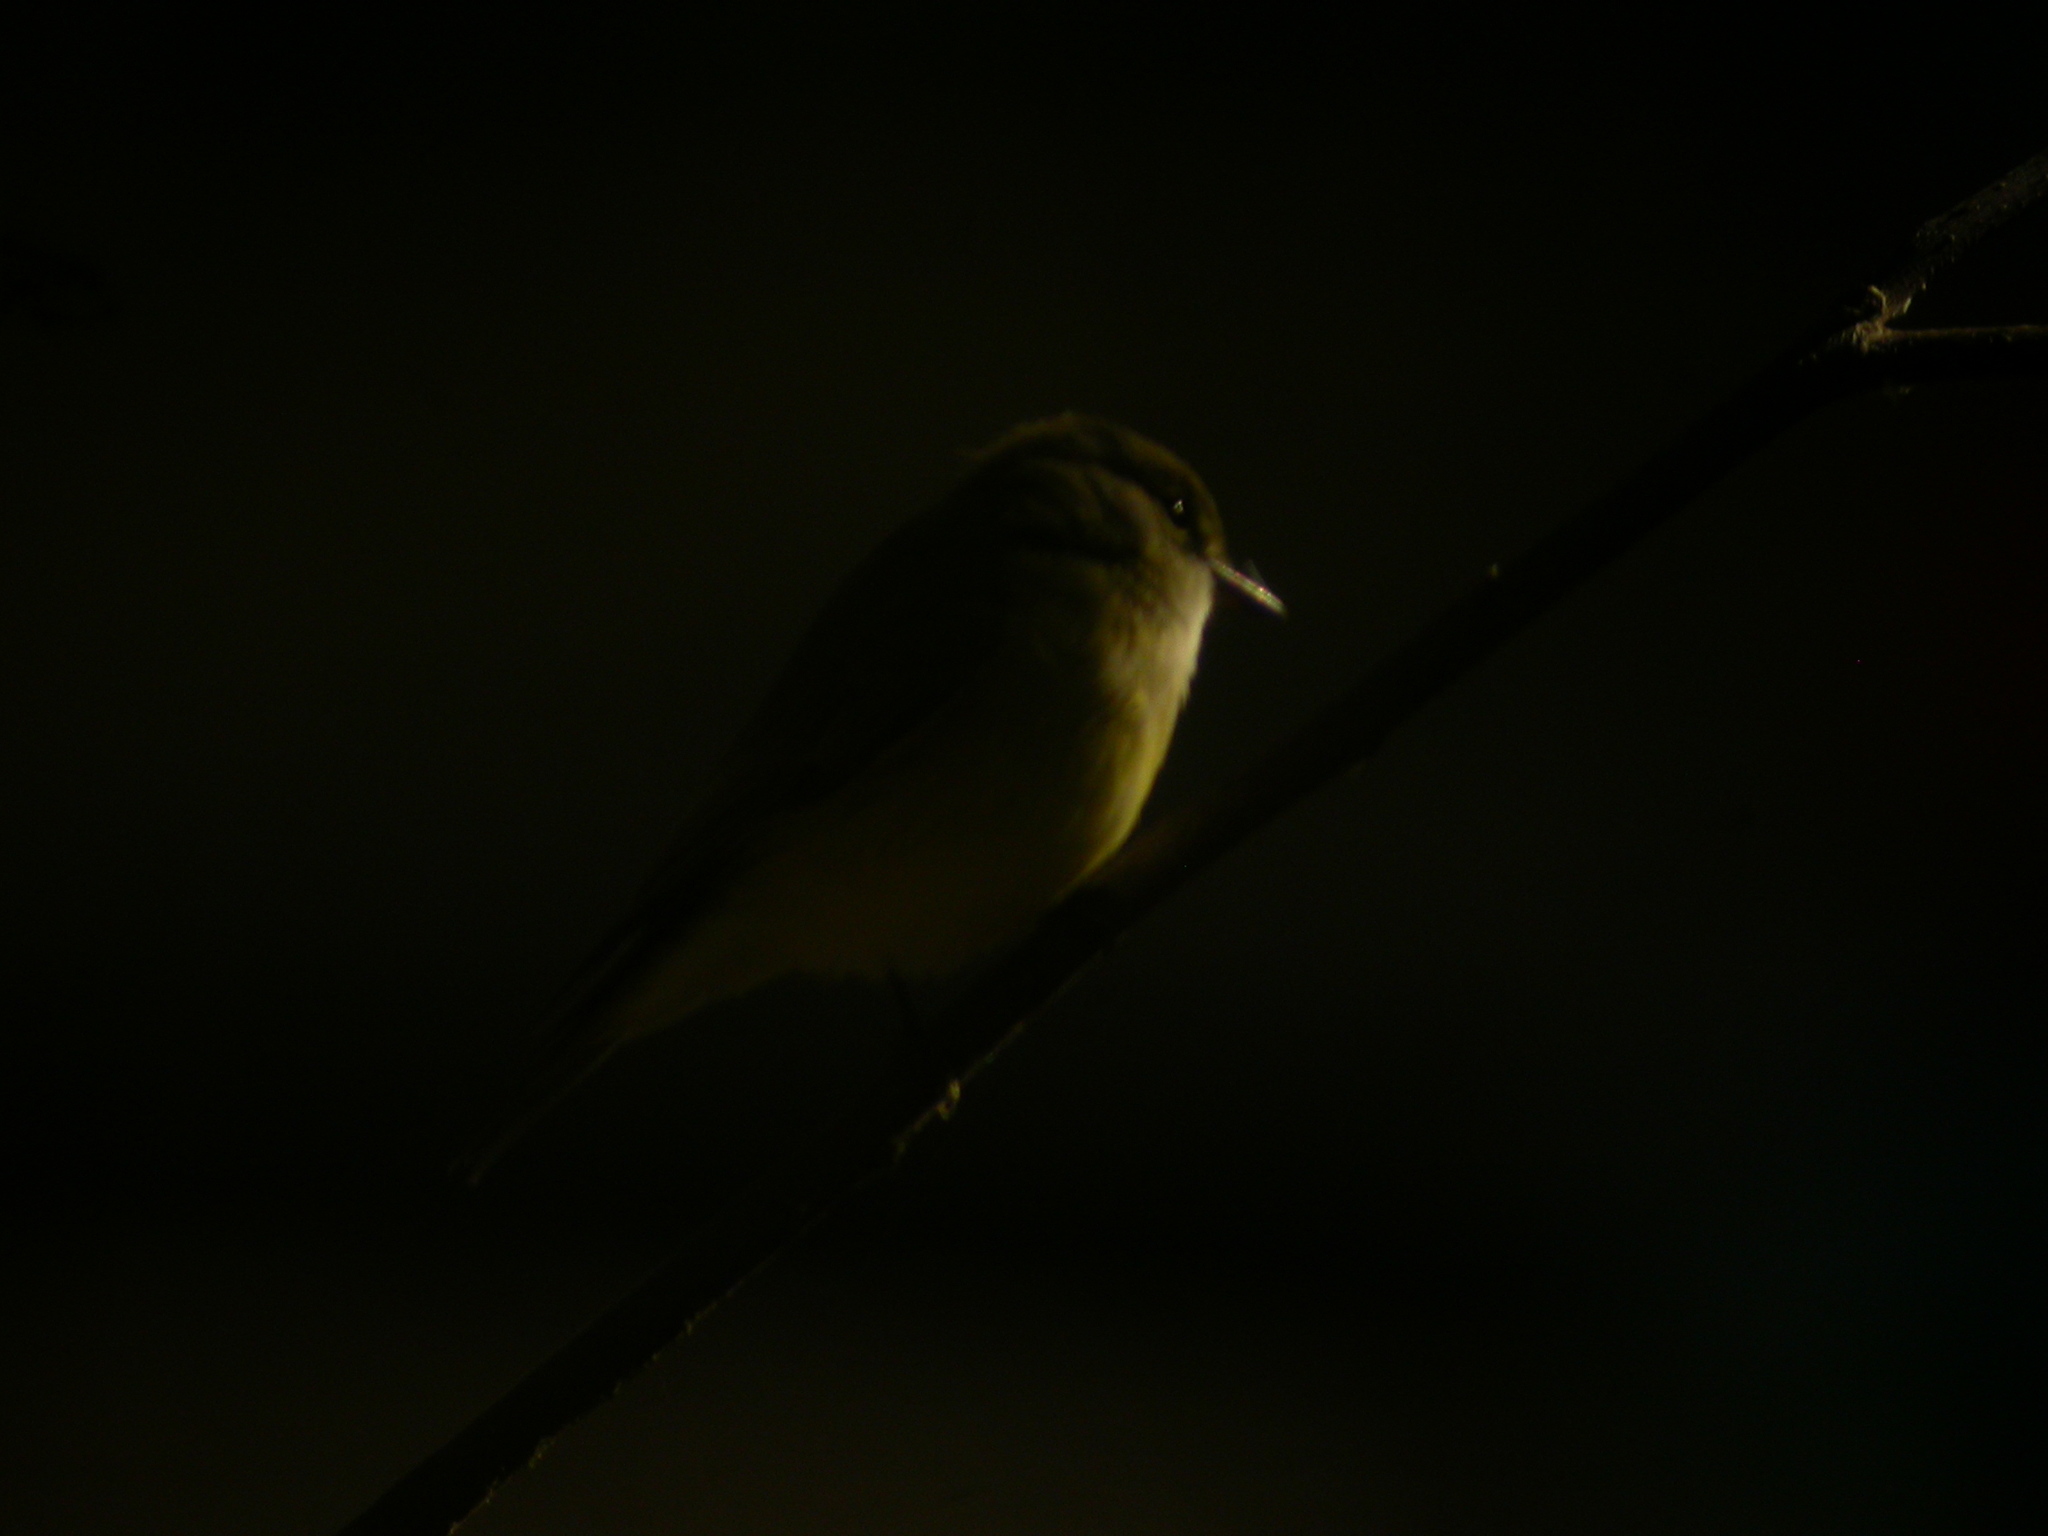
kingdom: Animalia
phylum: Chordata
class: Aves
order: Passeriformes
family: Petroicidae
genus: Microeca
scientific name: Microeca flavigaster
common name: Lemon-bellied flyrobin
